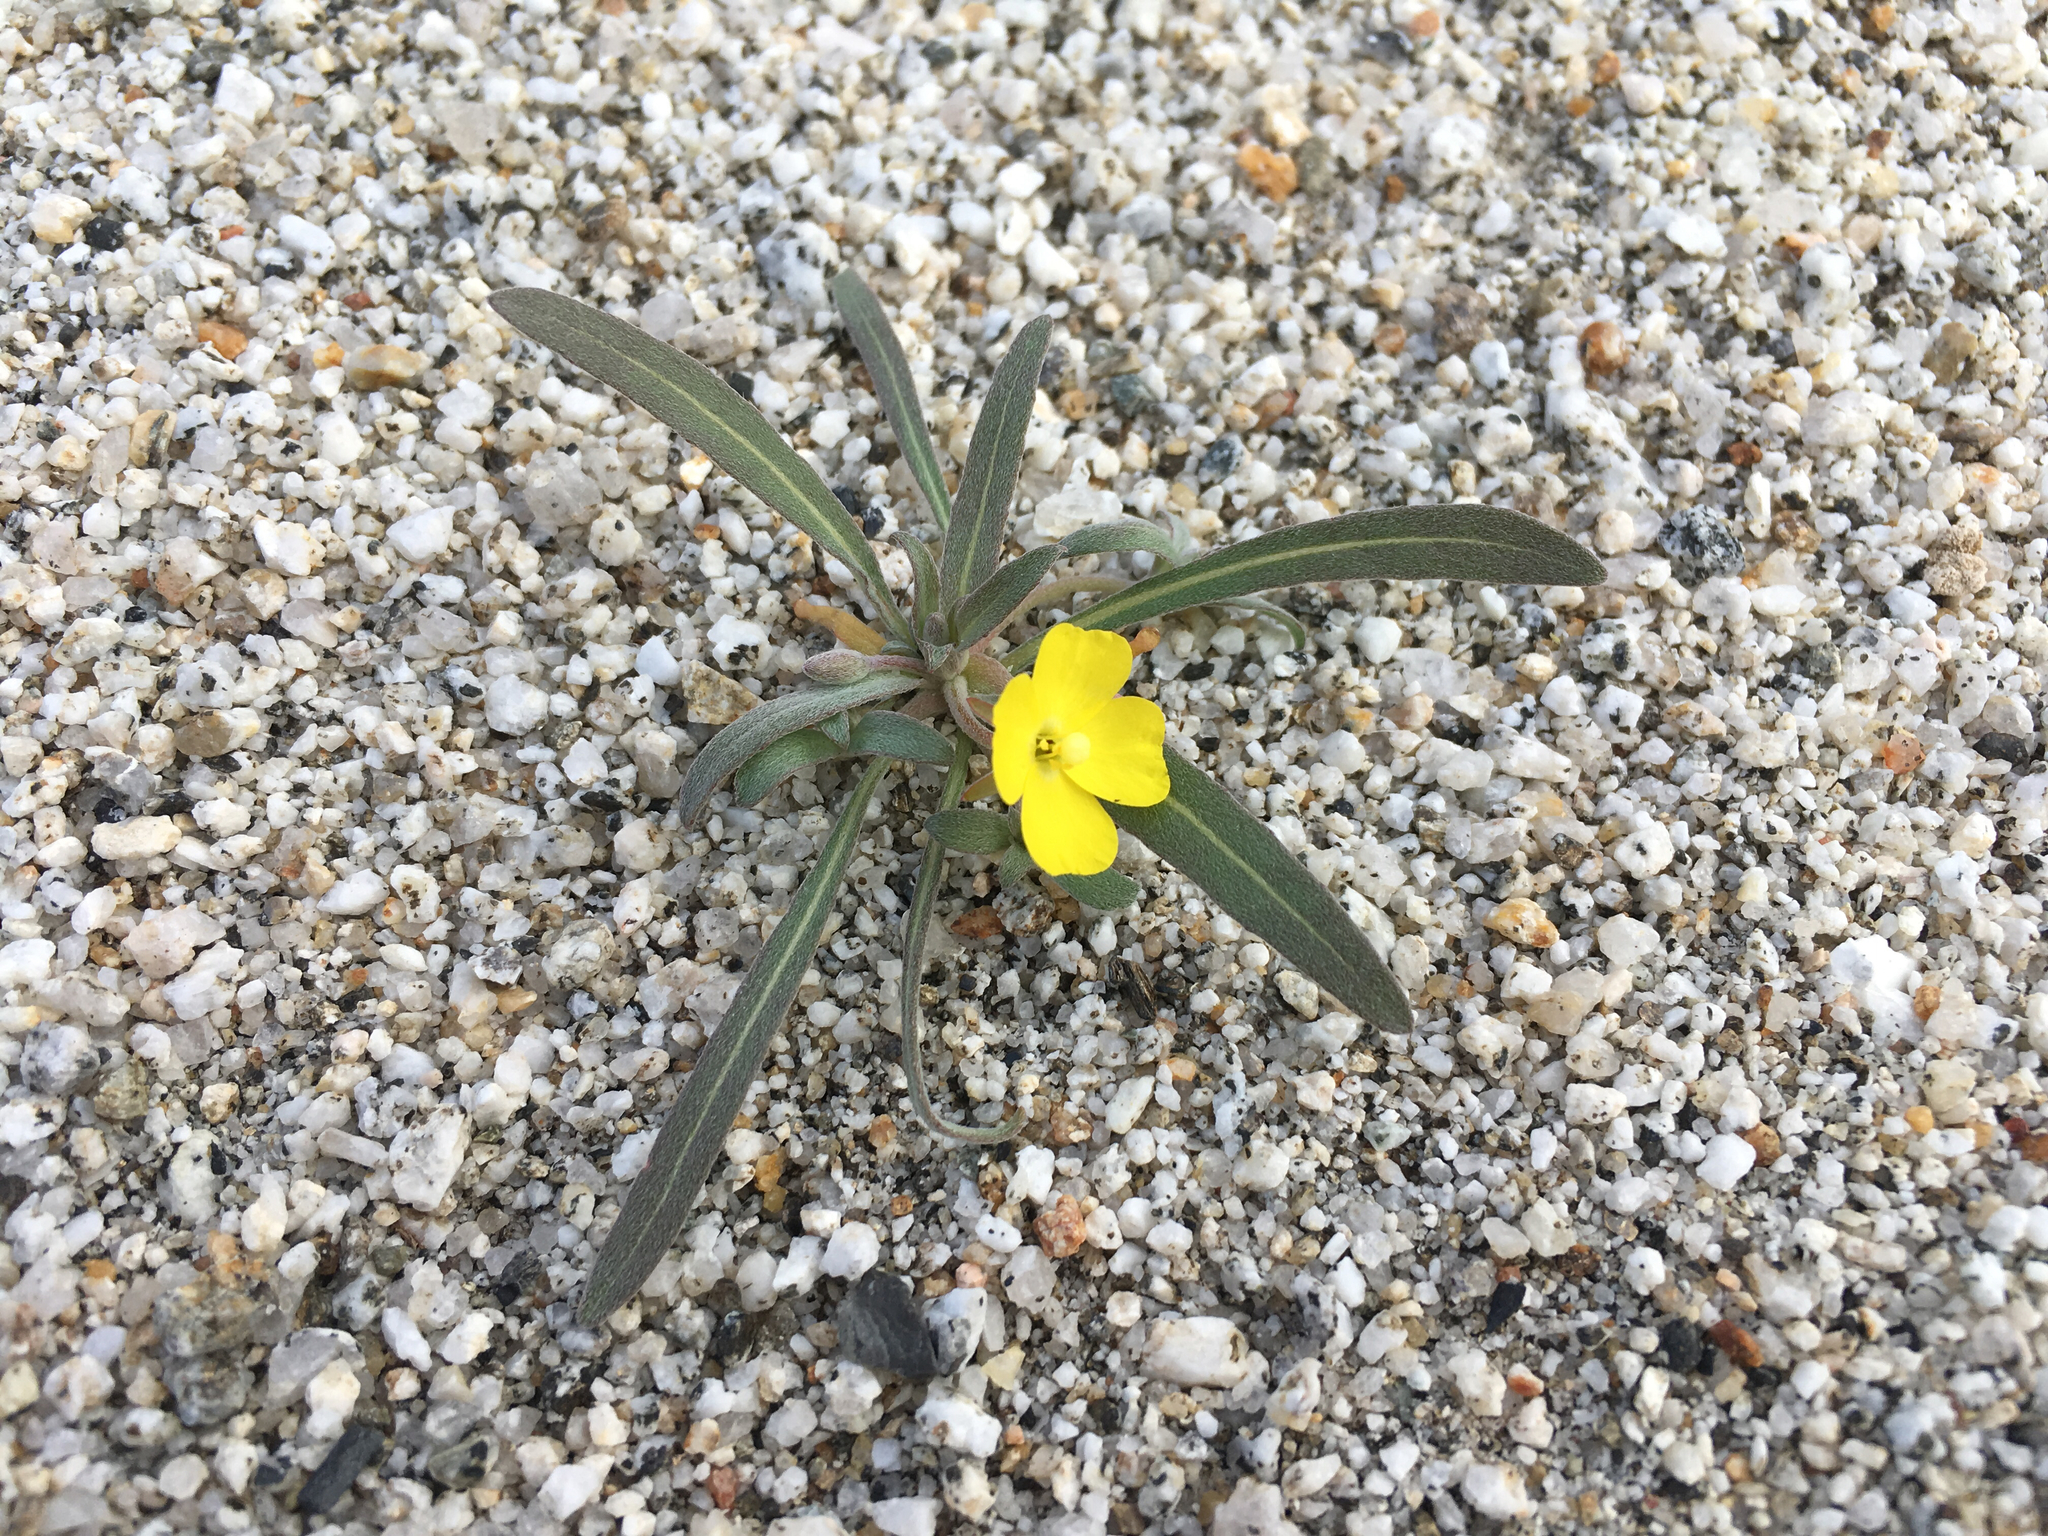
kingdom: Plantae
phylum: Tracheophyta
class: Magnoliopsida
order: Myrtales
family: Onagraceae
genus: Camissoniopsis
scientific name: Camissoniopsis pallida
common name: Paleyellow suncup
